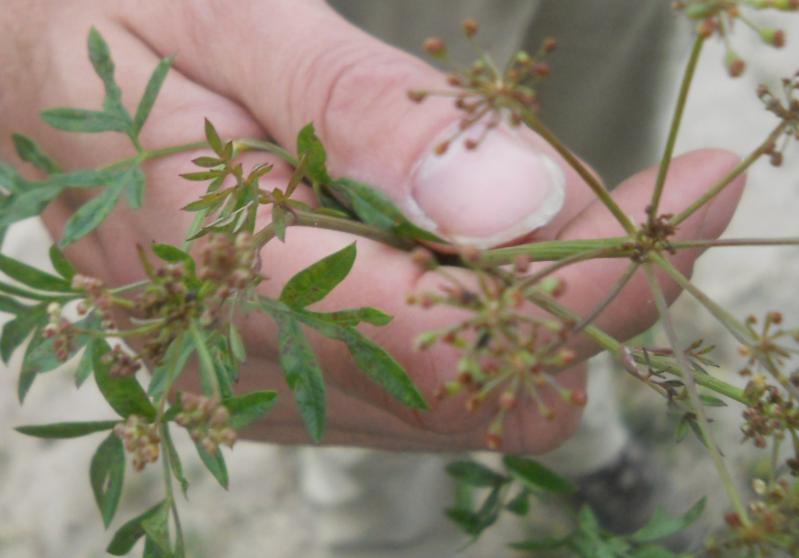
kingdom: Plantae
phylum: Tracheophyta
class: Magnoliopsida
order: Apiales
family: Apiaceae
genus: Silaum
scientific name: Silaum silaus
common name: Pepper-saxifrage
